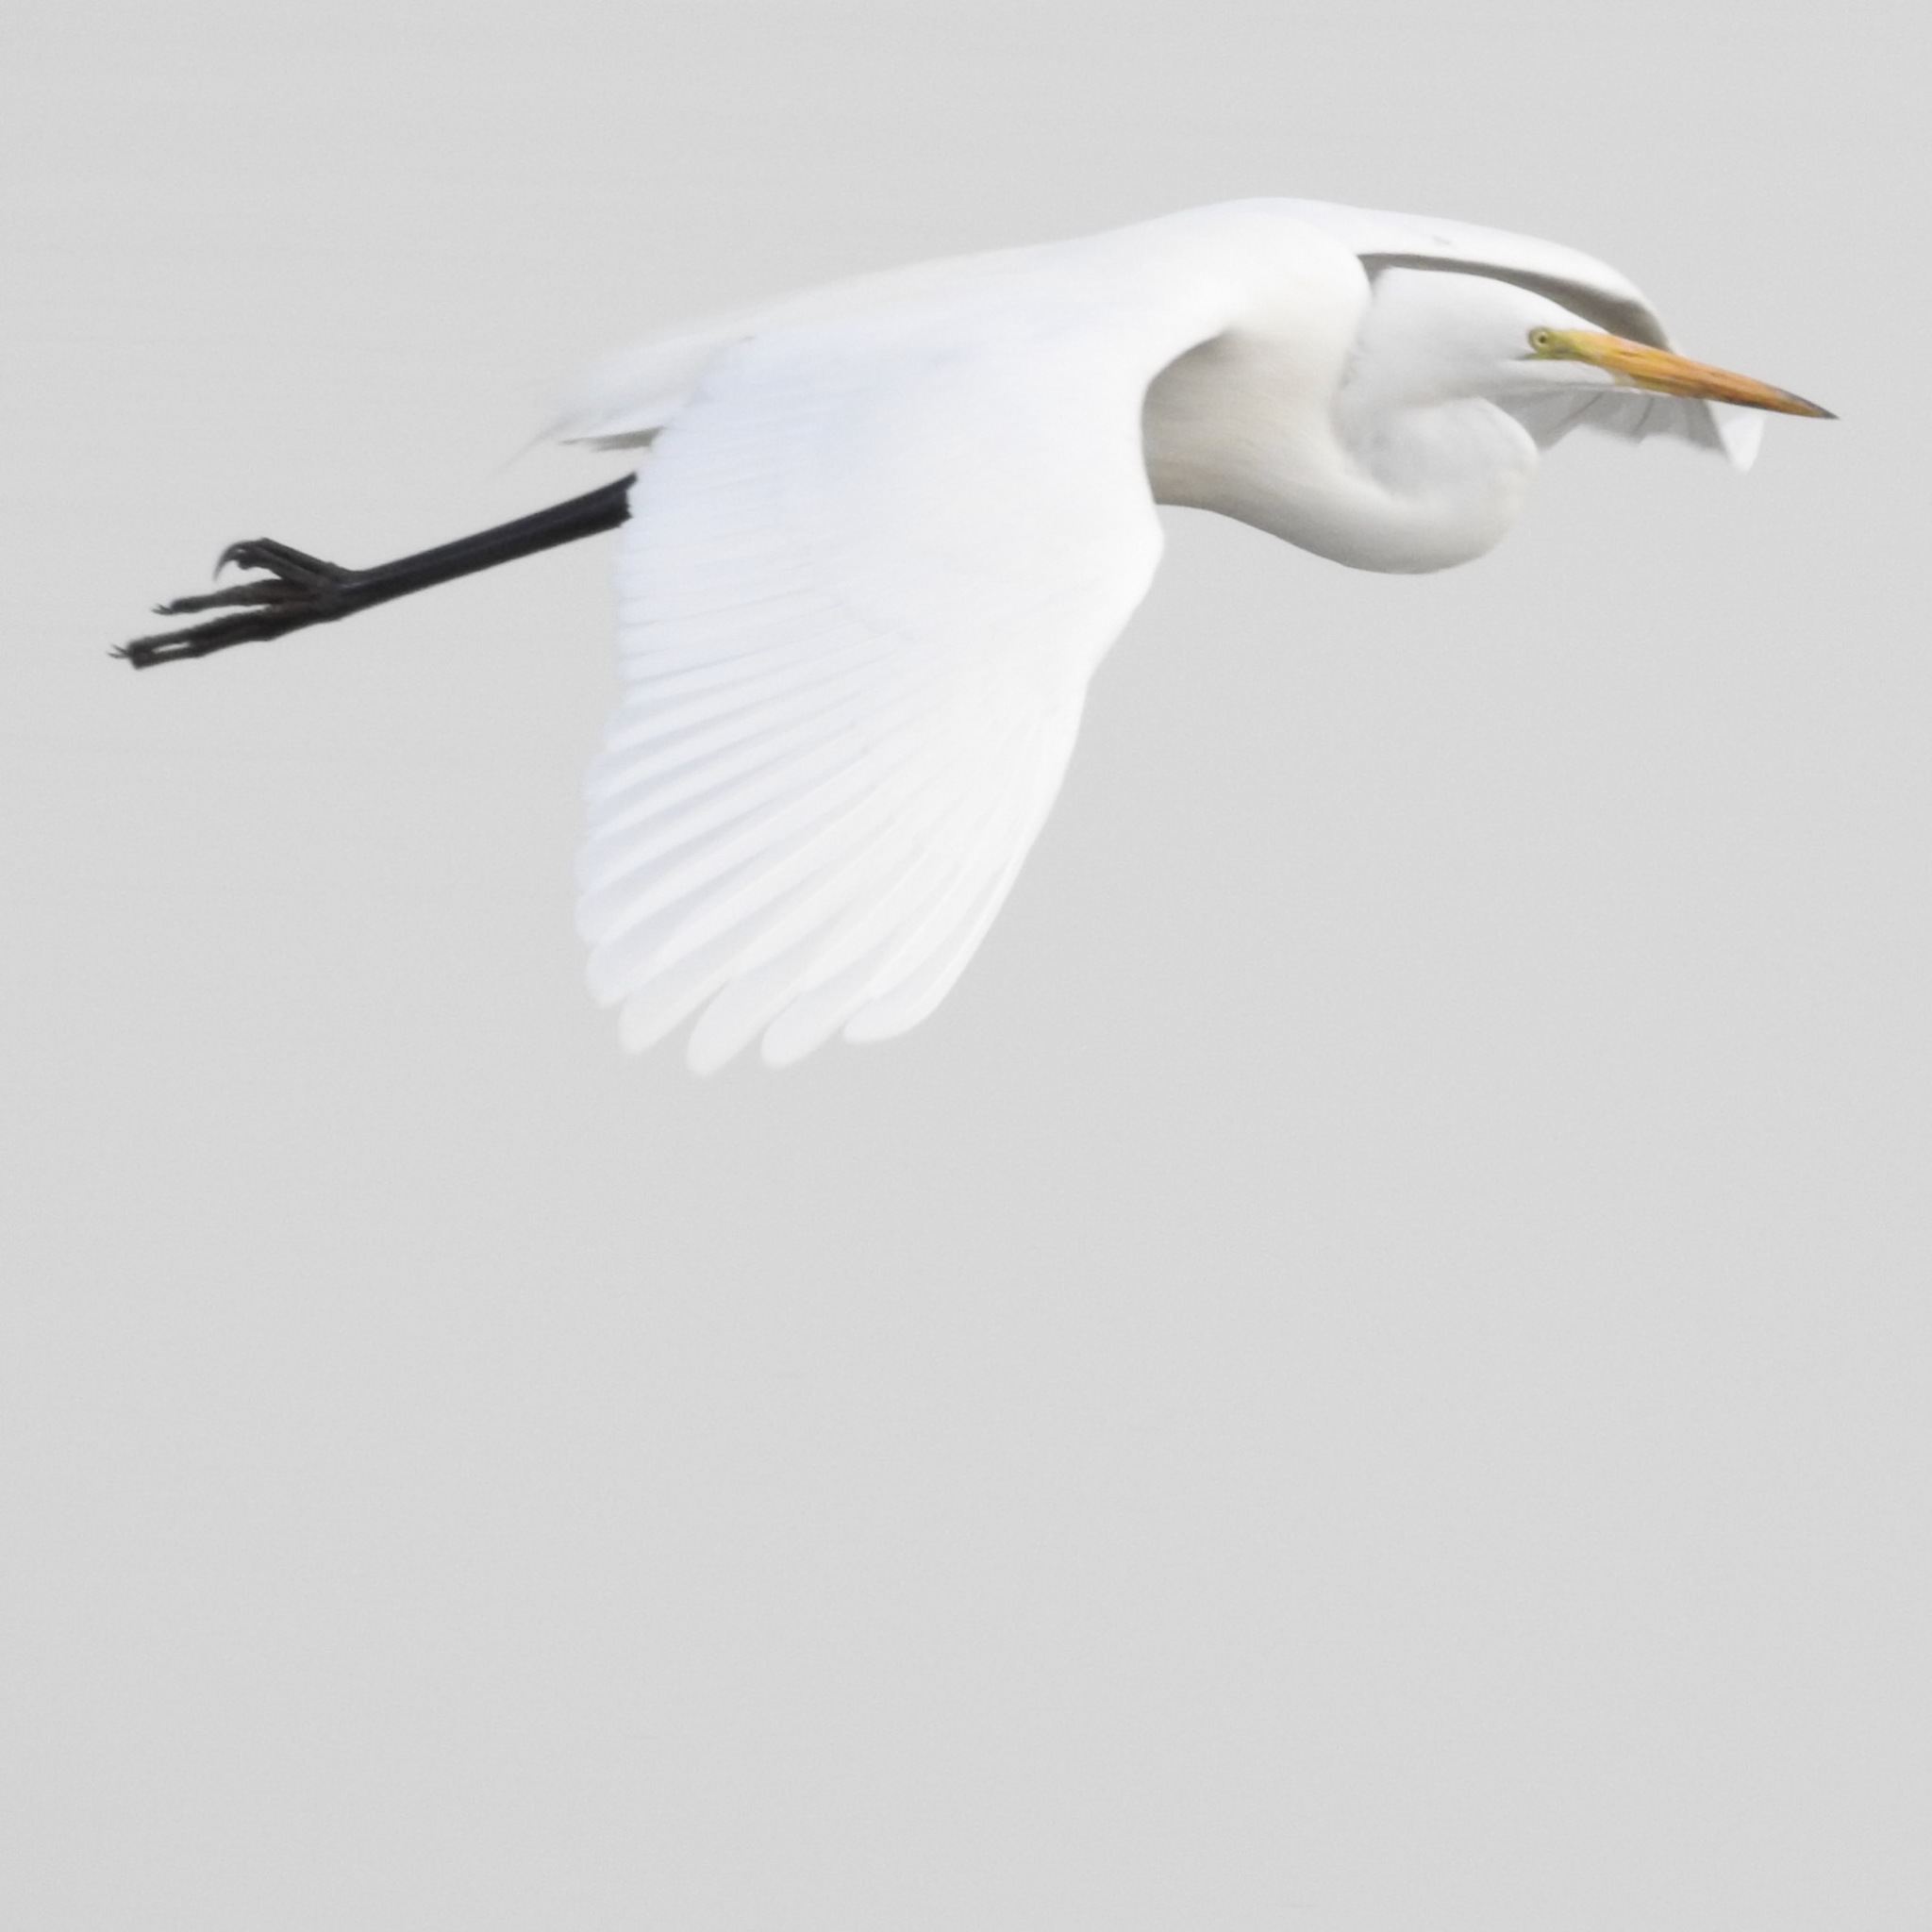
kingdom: Animalia
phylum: Chordata
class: Aves
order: Pelecaniformes
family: Ardeidae
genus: Ardea
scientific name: Ardea alba
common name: Great egret
